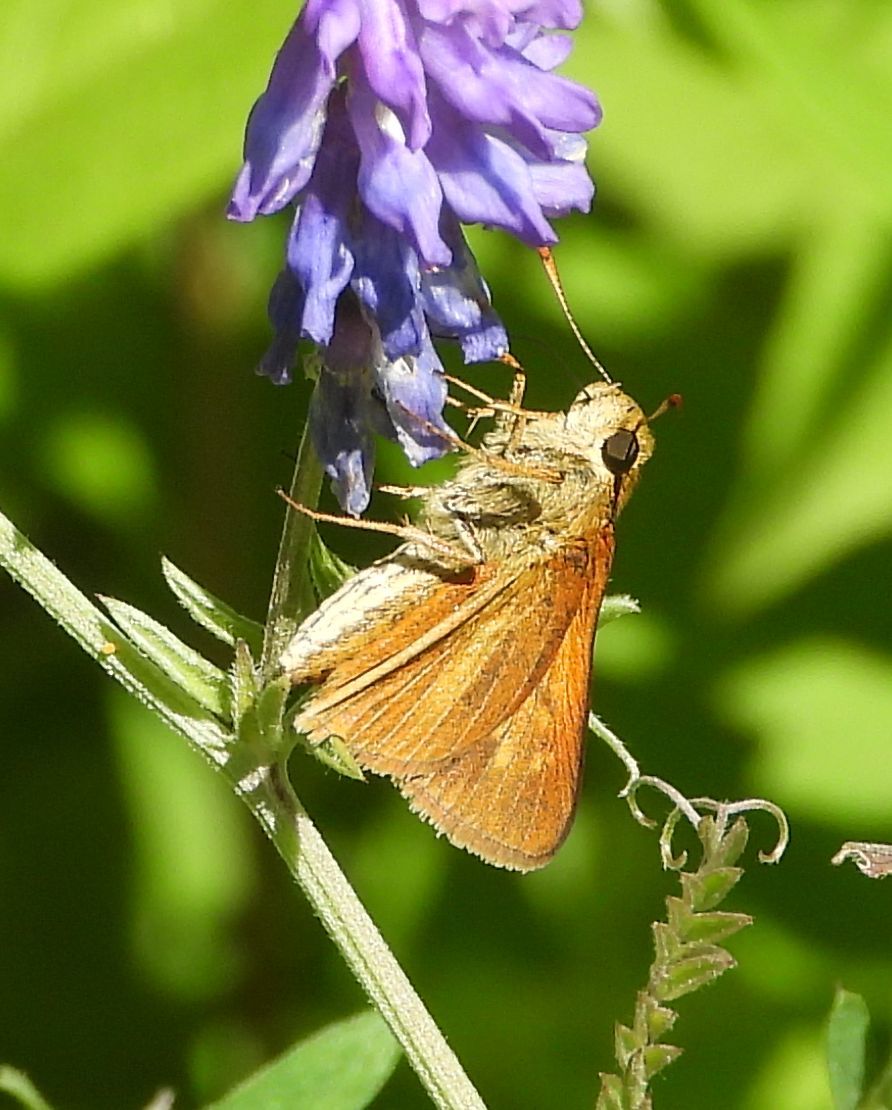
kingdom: Animalia
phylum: Arthropoda
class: Insecta
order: Lepidoptera
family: Hesperiidae
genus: Euphyes
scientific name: Euphyes dion
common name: Dion skipper
